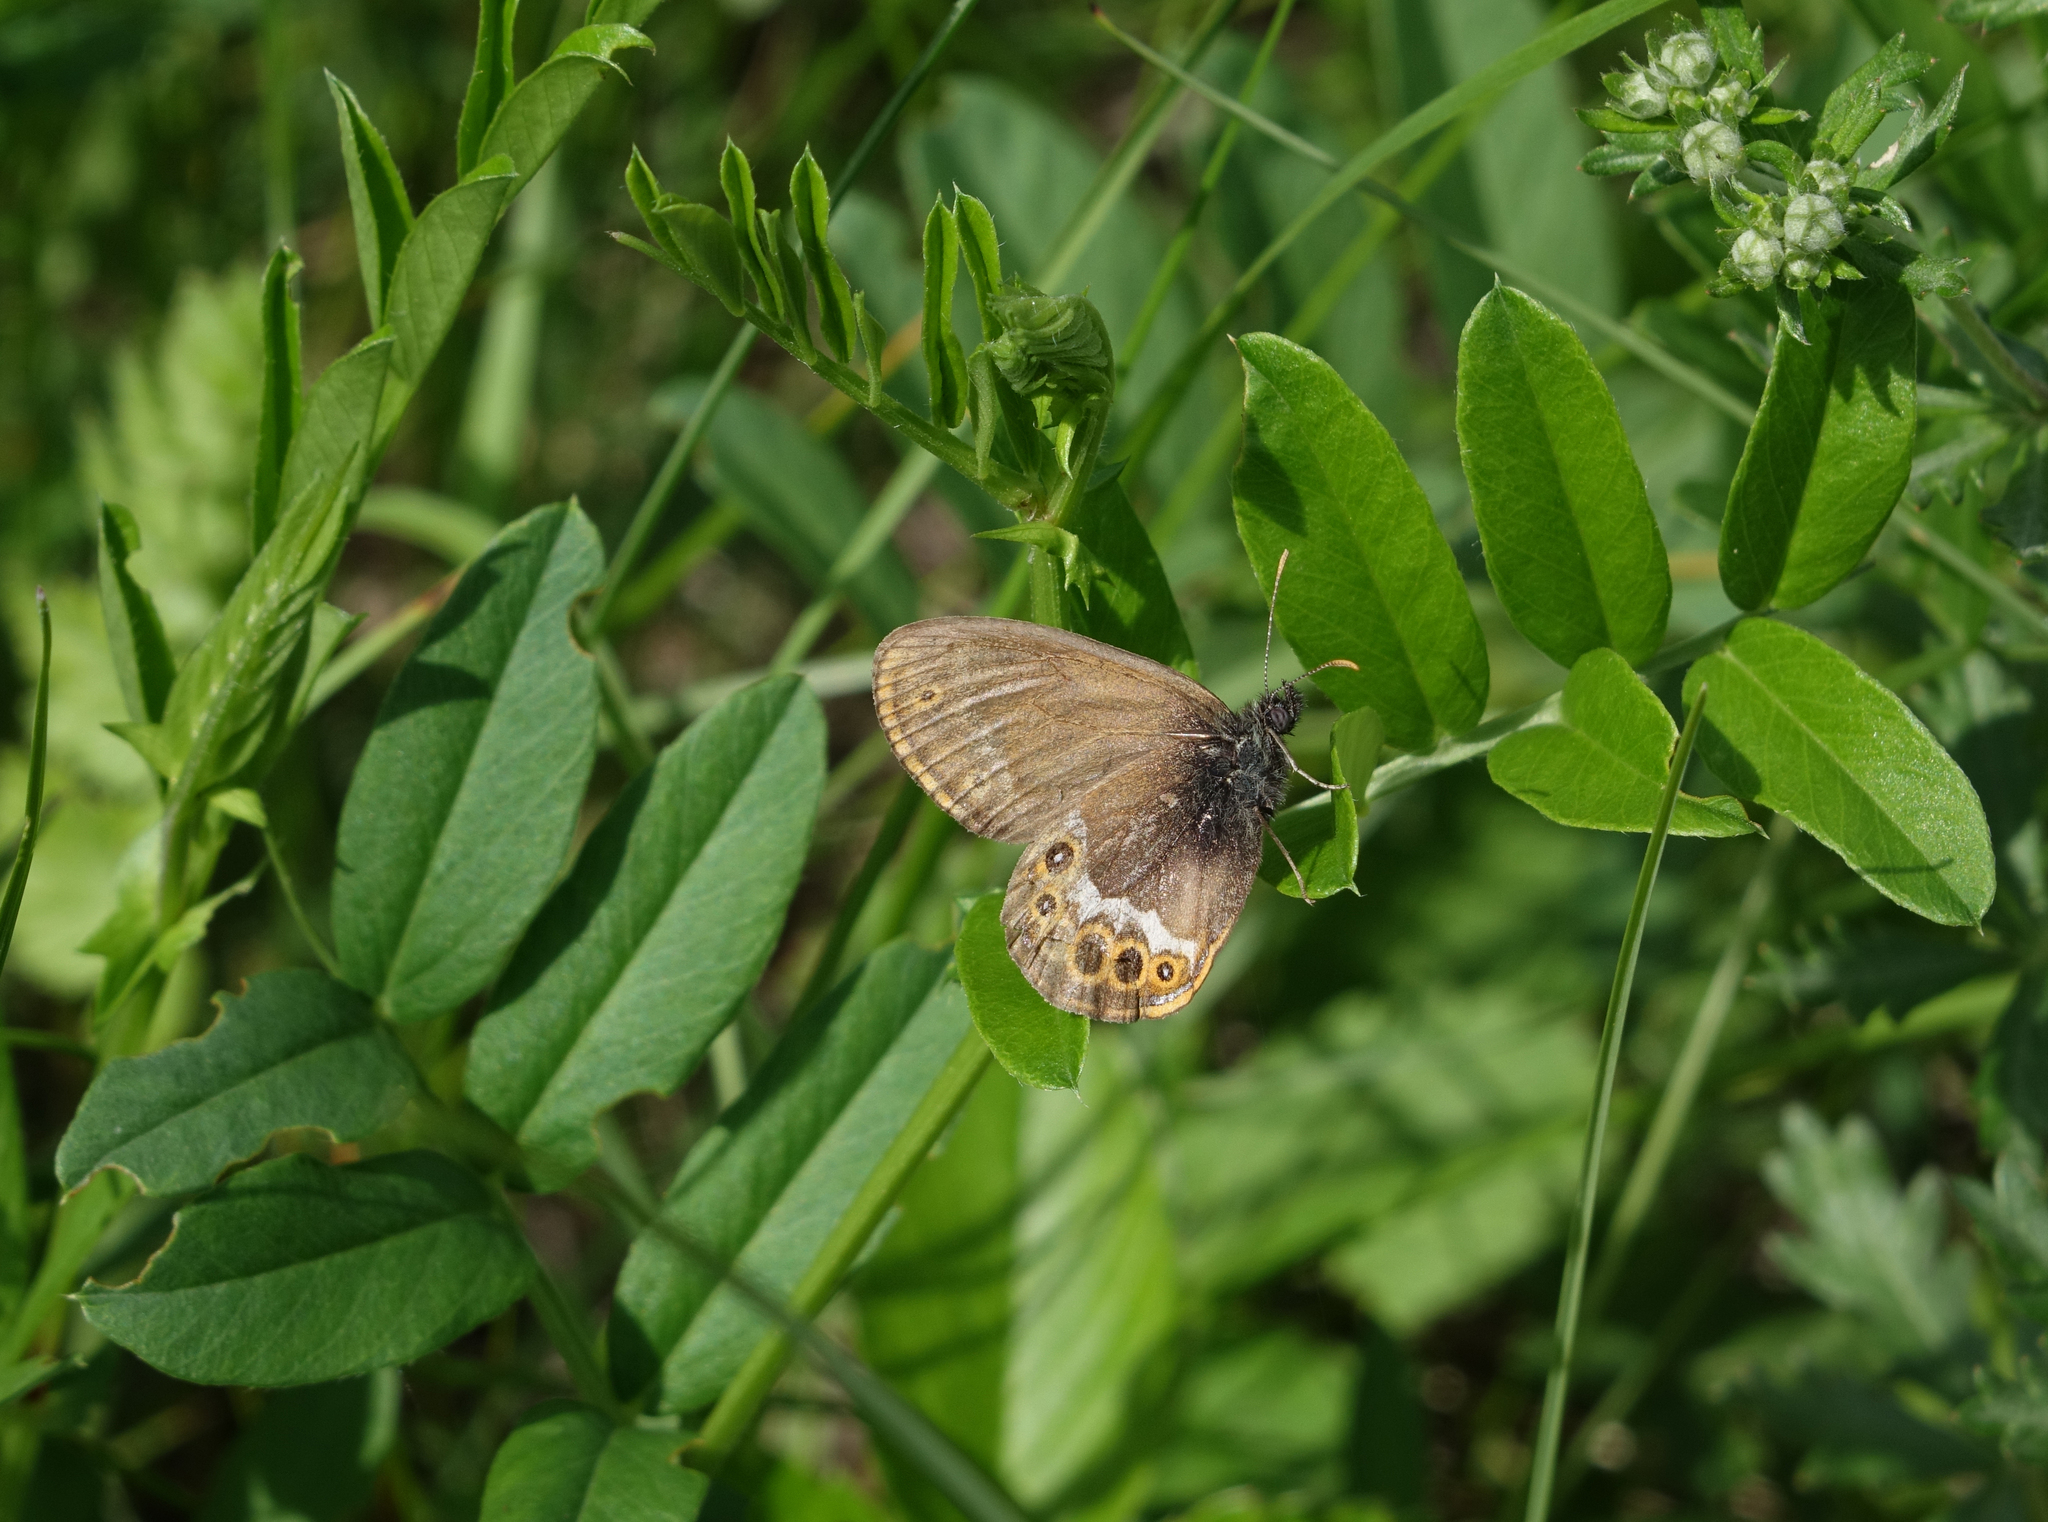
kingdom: Animalia
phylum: Arthropoda
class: Insecta
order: Lepidoptera
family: Nymphalidae
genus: Coenonympha
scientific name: Coenonympha hero
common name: Scarce heath
